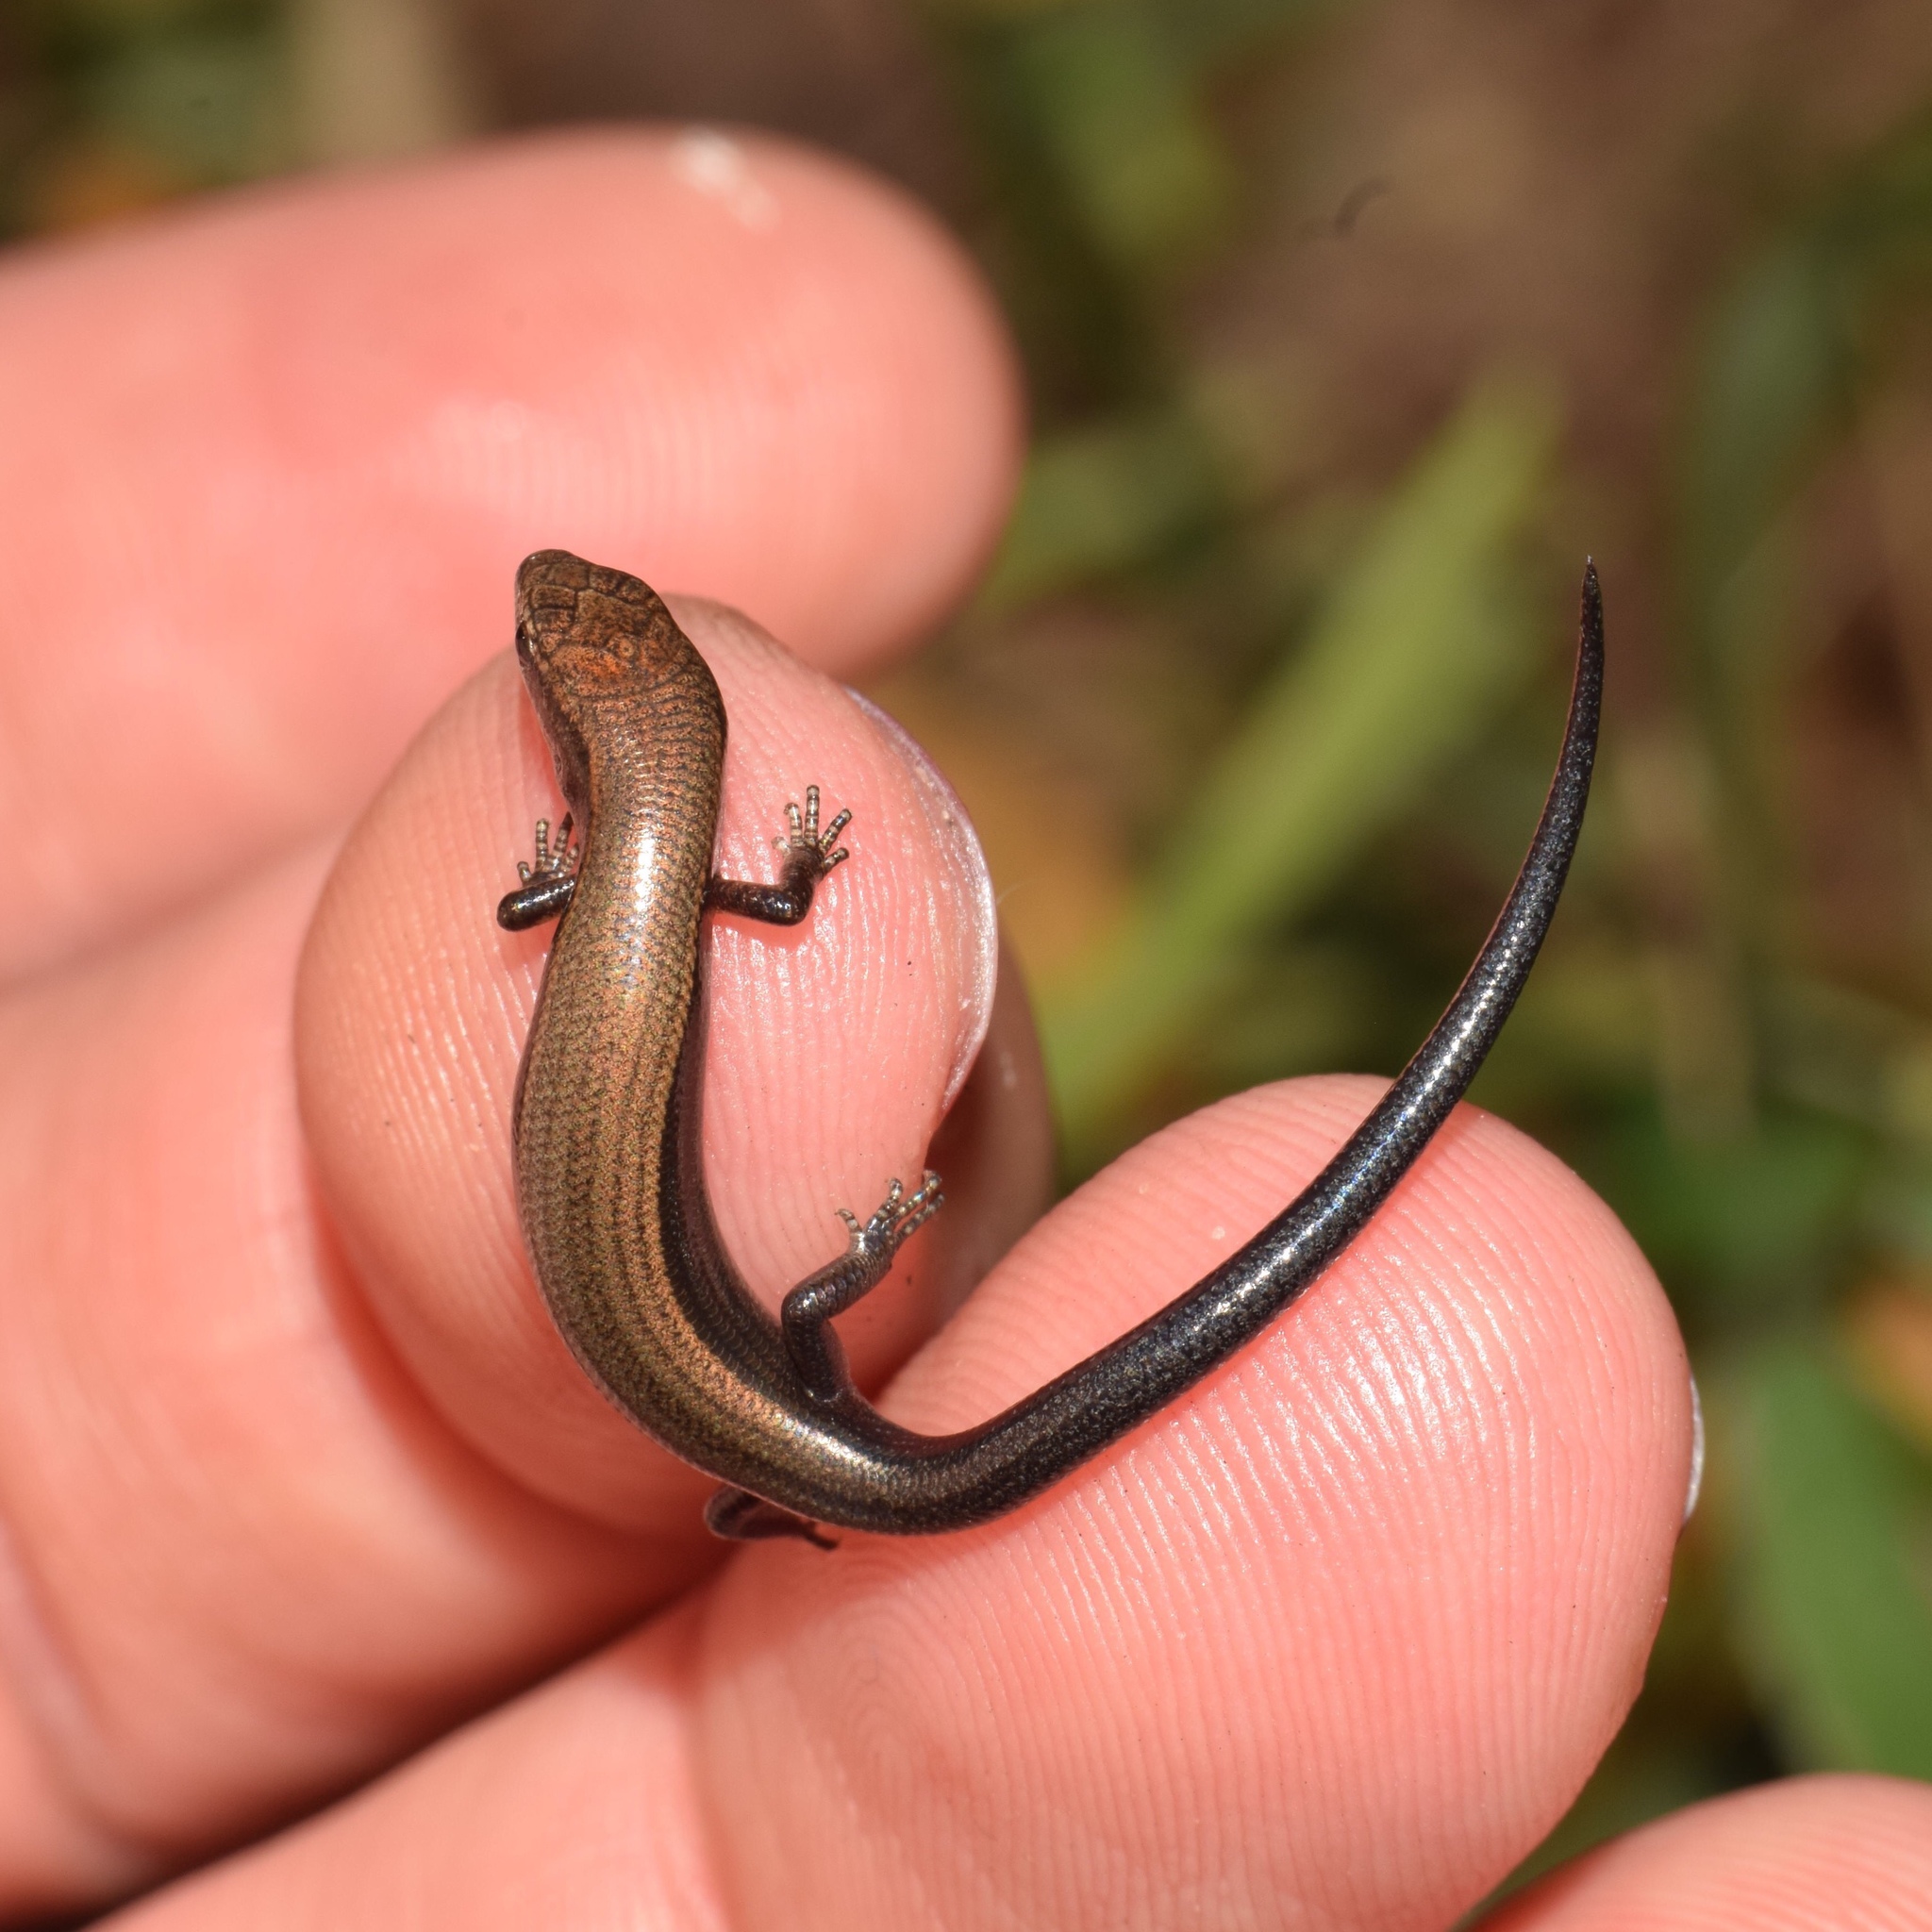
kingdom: Animalia
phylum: Chordata
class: Squamata
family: Scincidae
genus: Panaspis
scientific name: Panaspis wahlbergii
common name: Angolan snake-eyed skink
